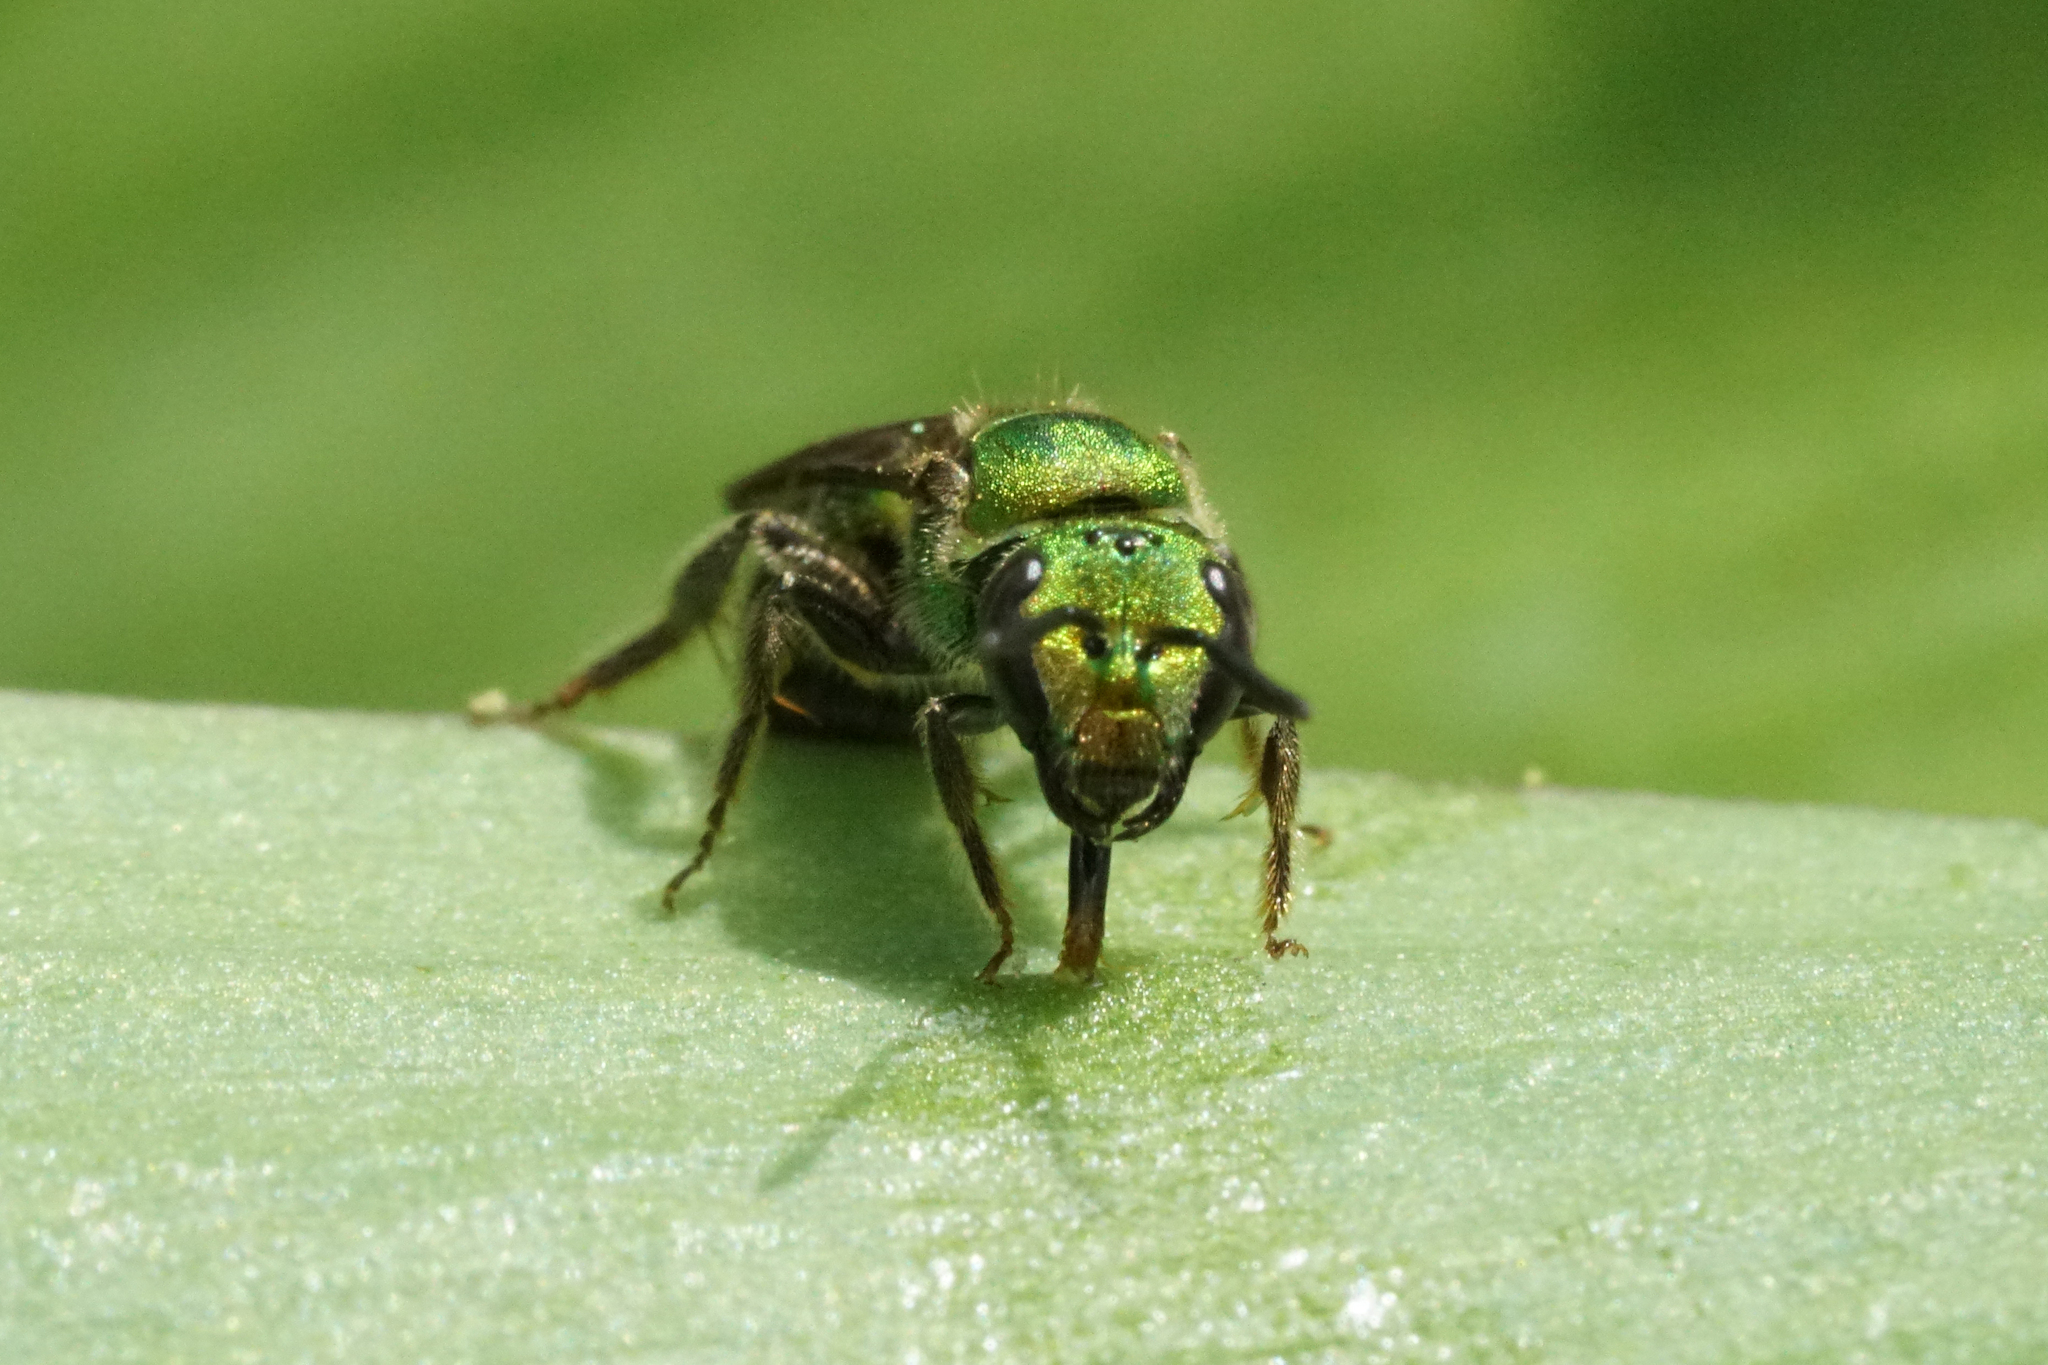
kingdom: Animalia
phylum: Arthropoda
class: Insecta
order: Hymenoptera
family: Halictidae
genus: Augochlora
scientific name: Augochlora pura
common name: Pure green sweat bee
